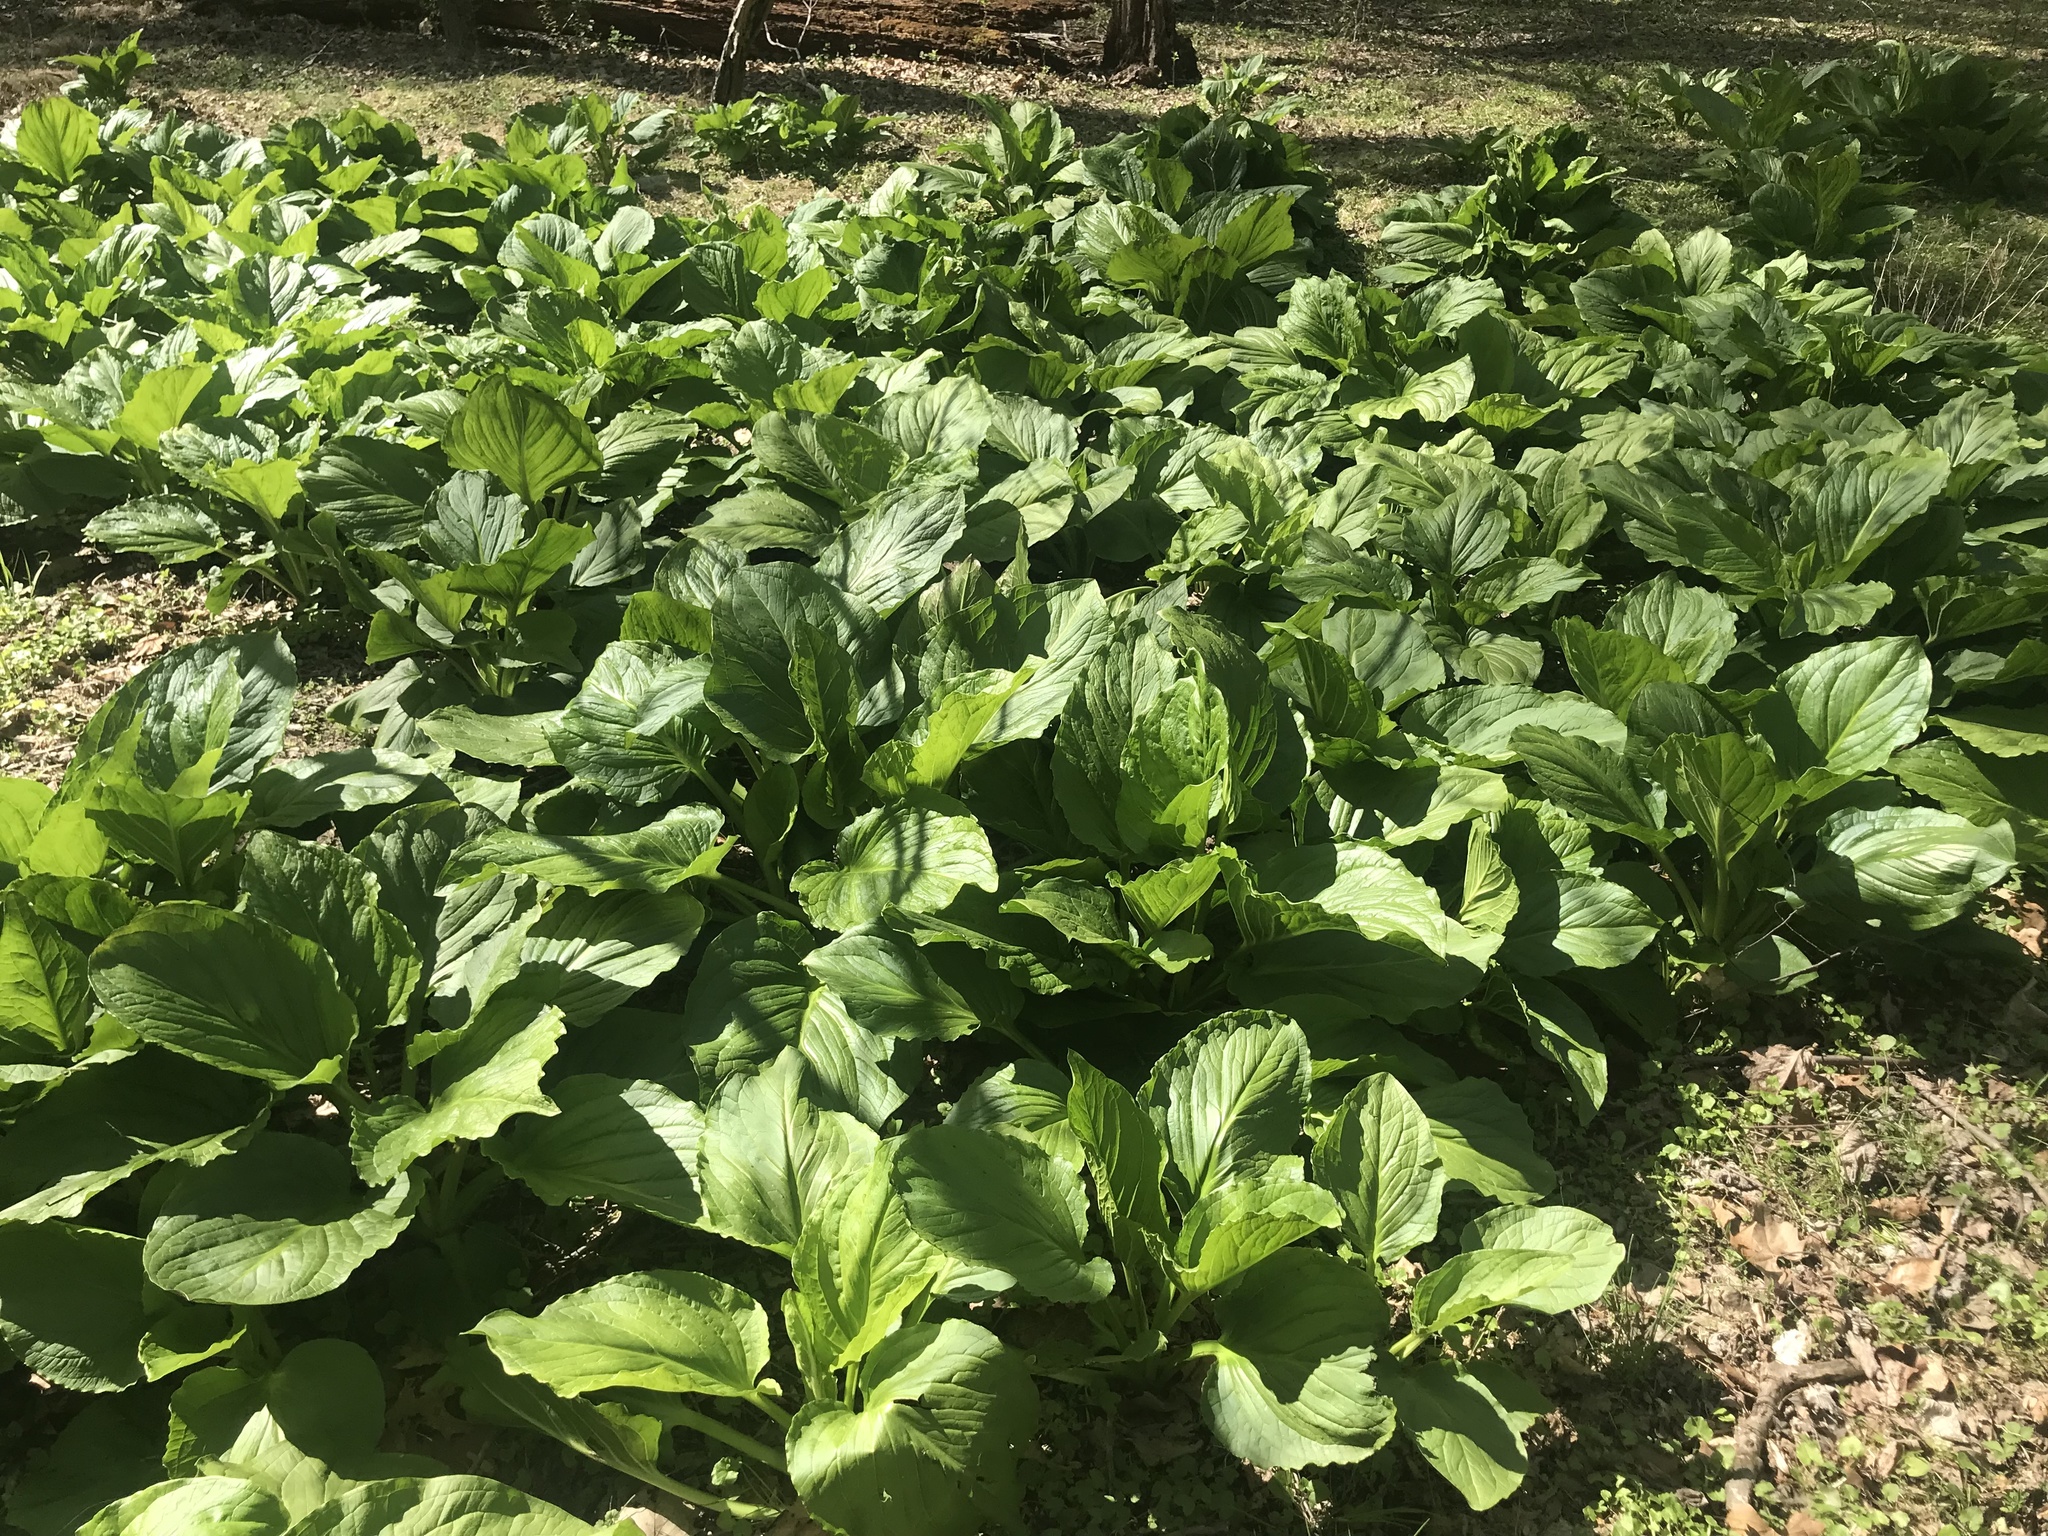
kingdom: Plantae
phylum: Tracheophyta
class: Liliopsida
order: Alismatales
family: Araceae
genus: Symplocarpus
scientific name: Symplocarpus foetidus
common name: Eastern skunk cabbage
